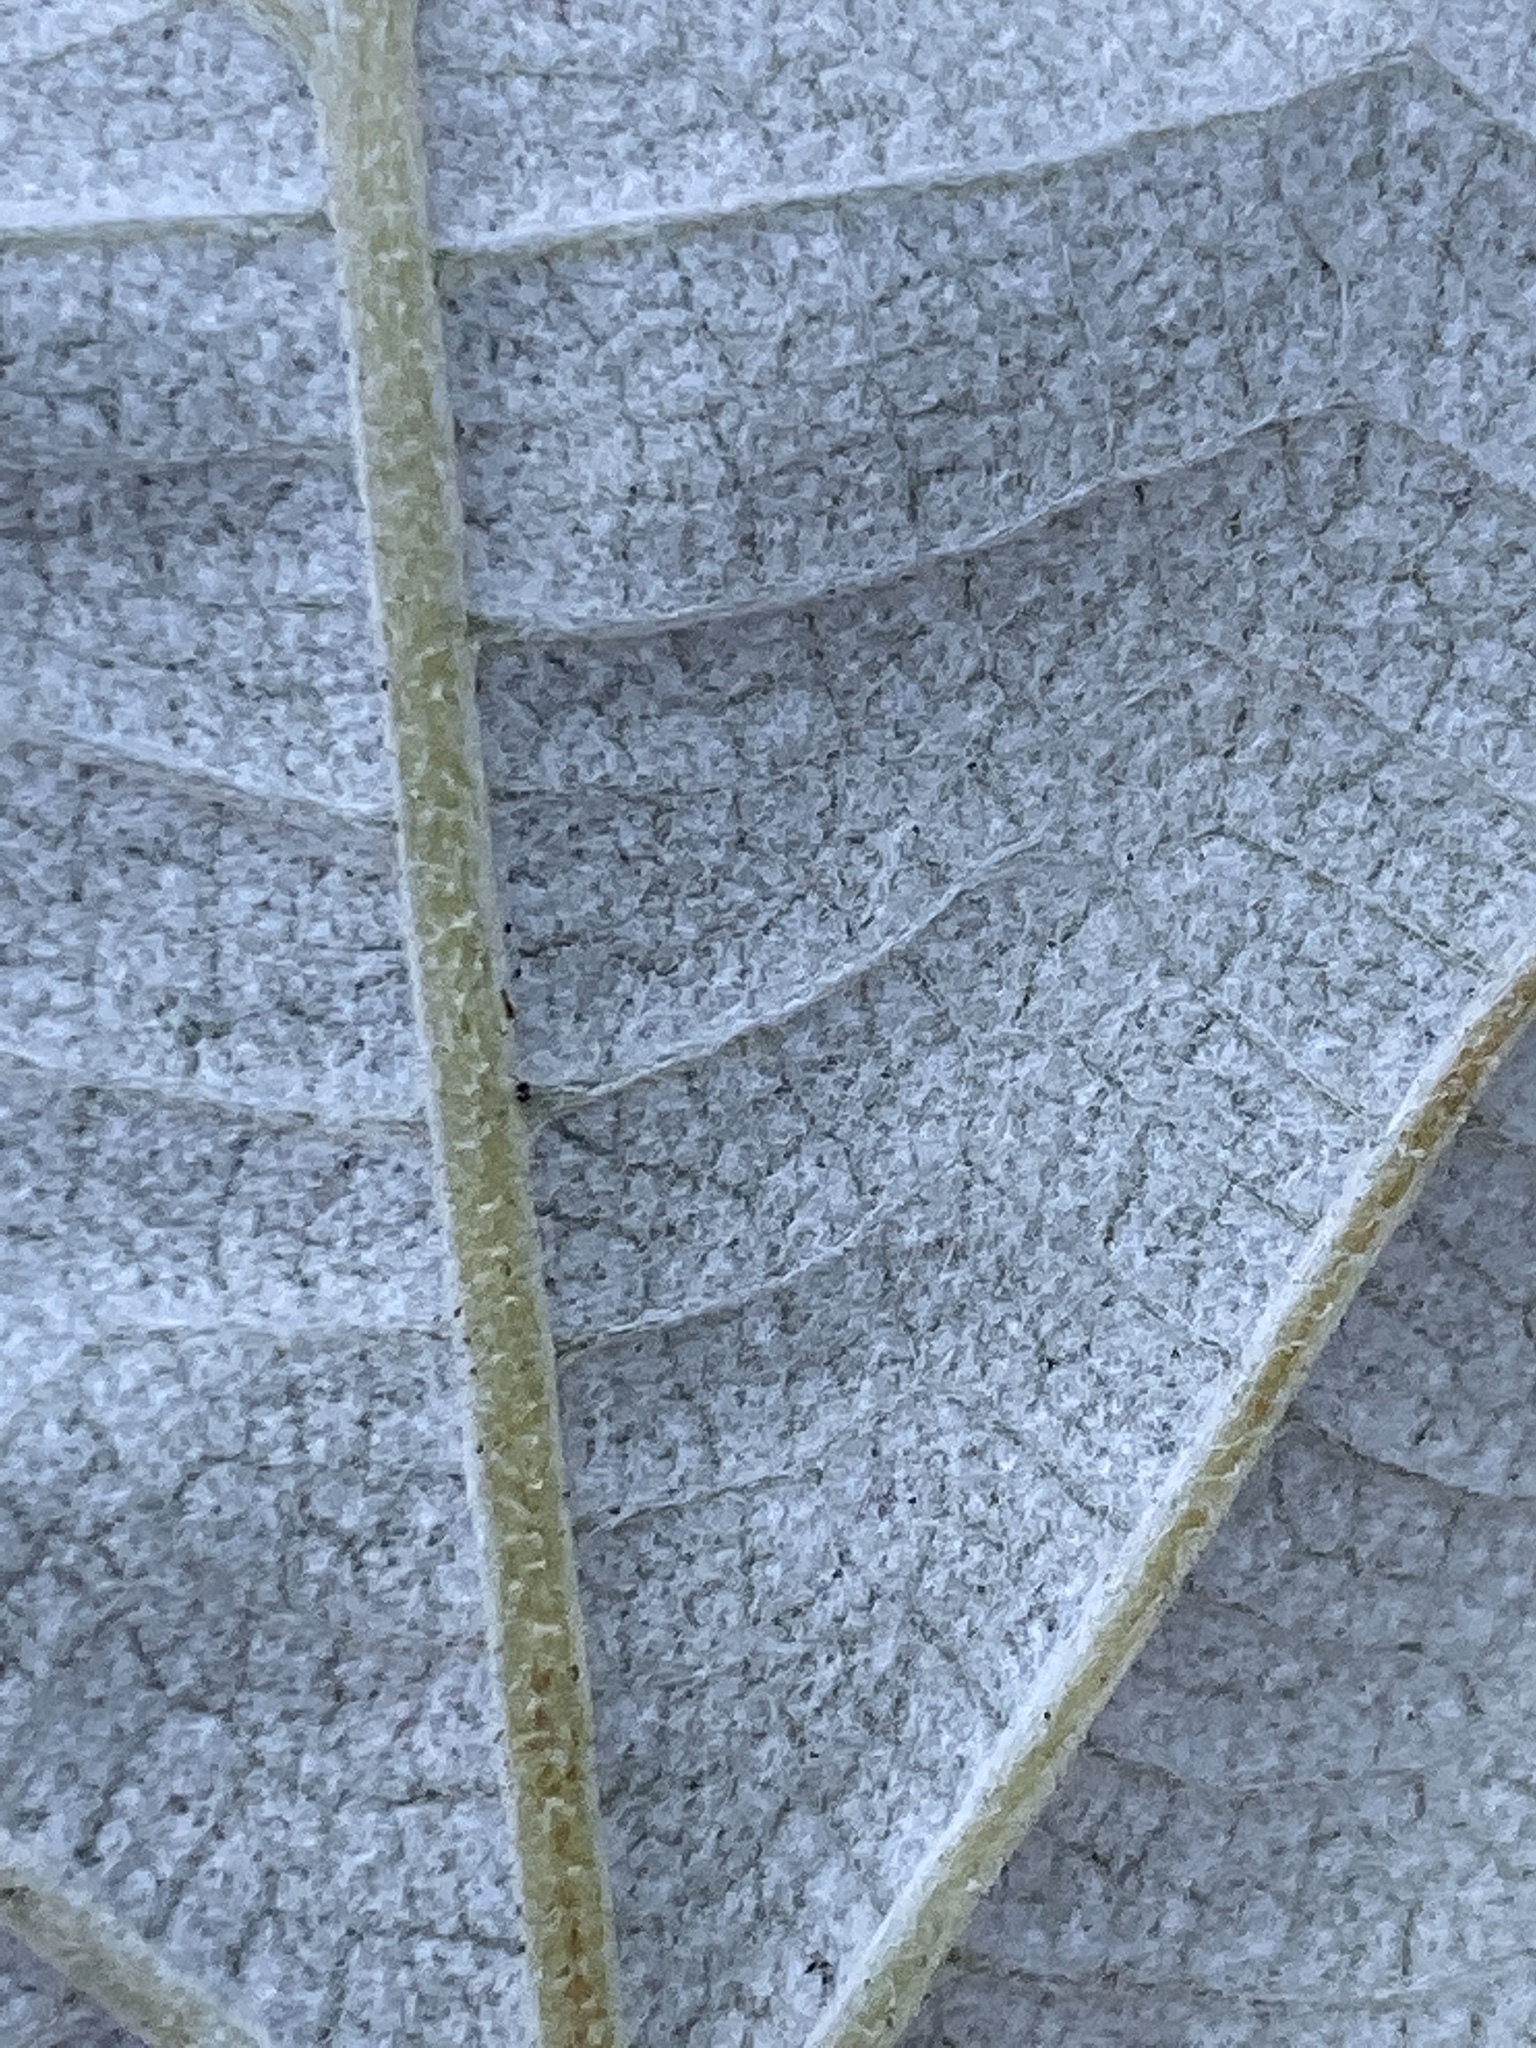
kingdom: Plantae
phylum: Tracheophyta
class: Magnoliopsida
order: Cornales
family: Hydrangeaceae
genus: Hydrangea
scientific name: Hydrangea radiata
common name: Silverleaf hydrangea
